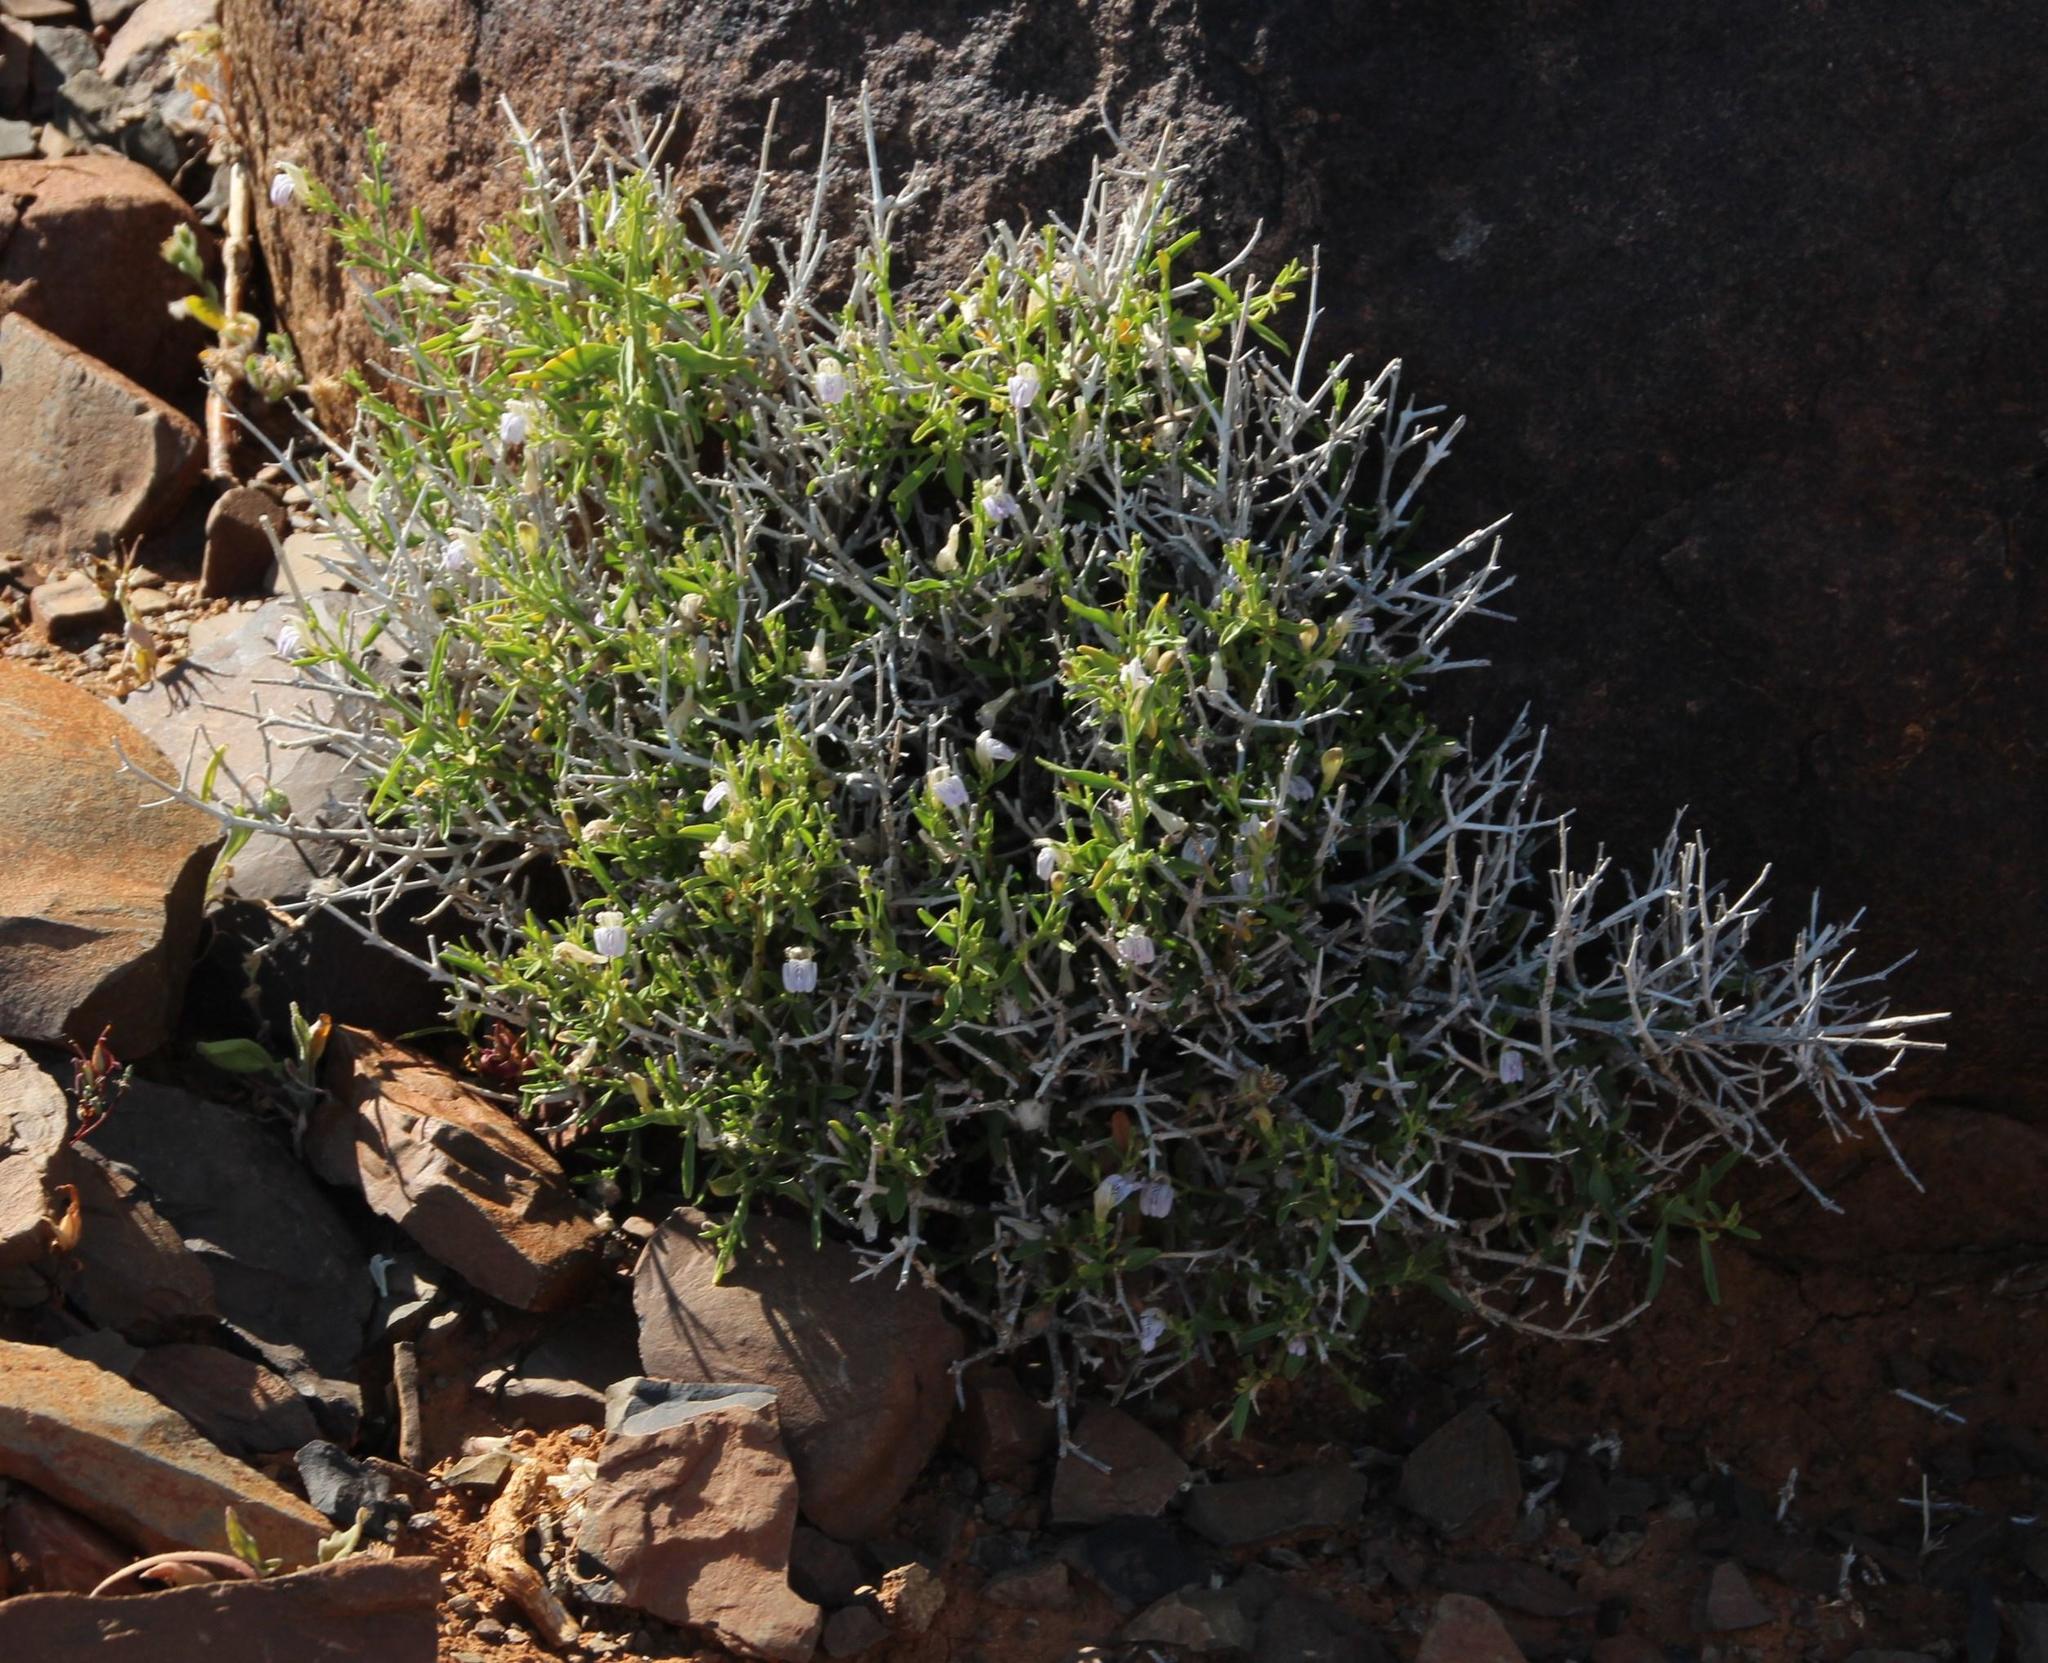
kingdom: Plantae
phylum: Tracheophyta
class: Magnoliopsida
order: Lamiales
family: Acanthaceae
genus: Pogonospermum
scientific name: Pogonospermum
